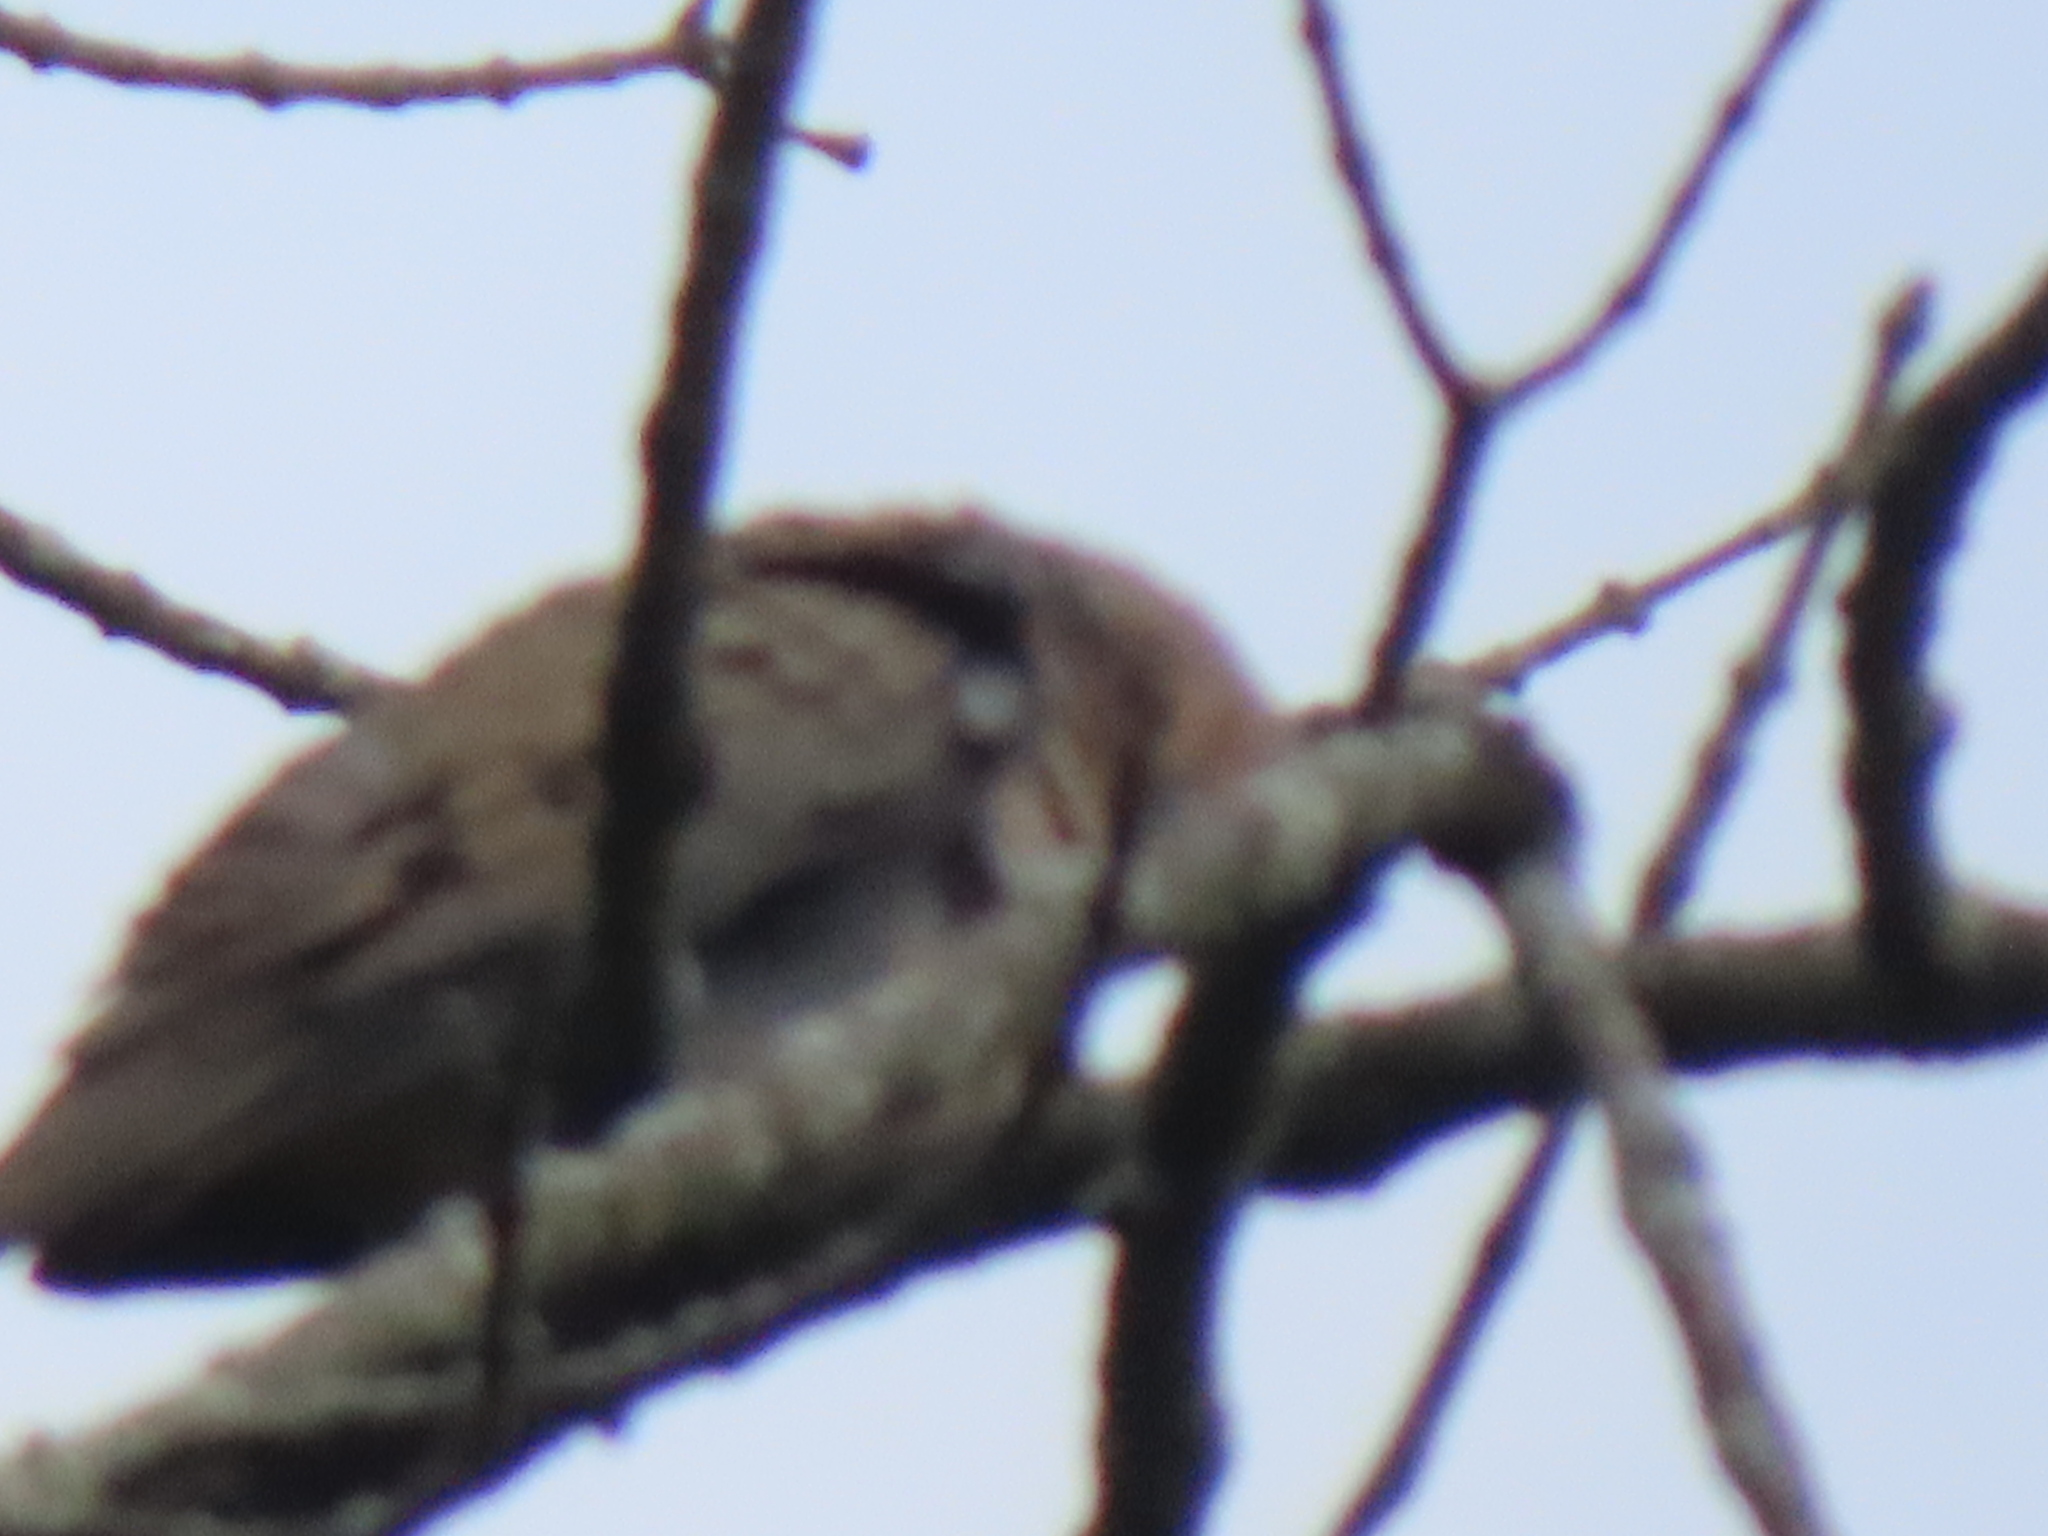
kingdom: Animalia
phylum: Chordata
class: Aves
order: Columbiformes
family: Columbidae
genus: Zenaida
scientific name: Zenaida macroura
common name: Mourning dove
